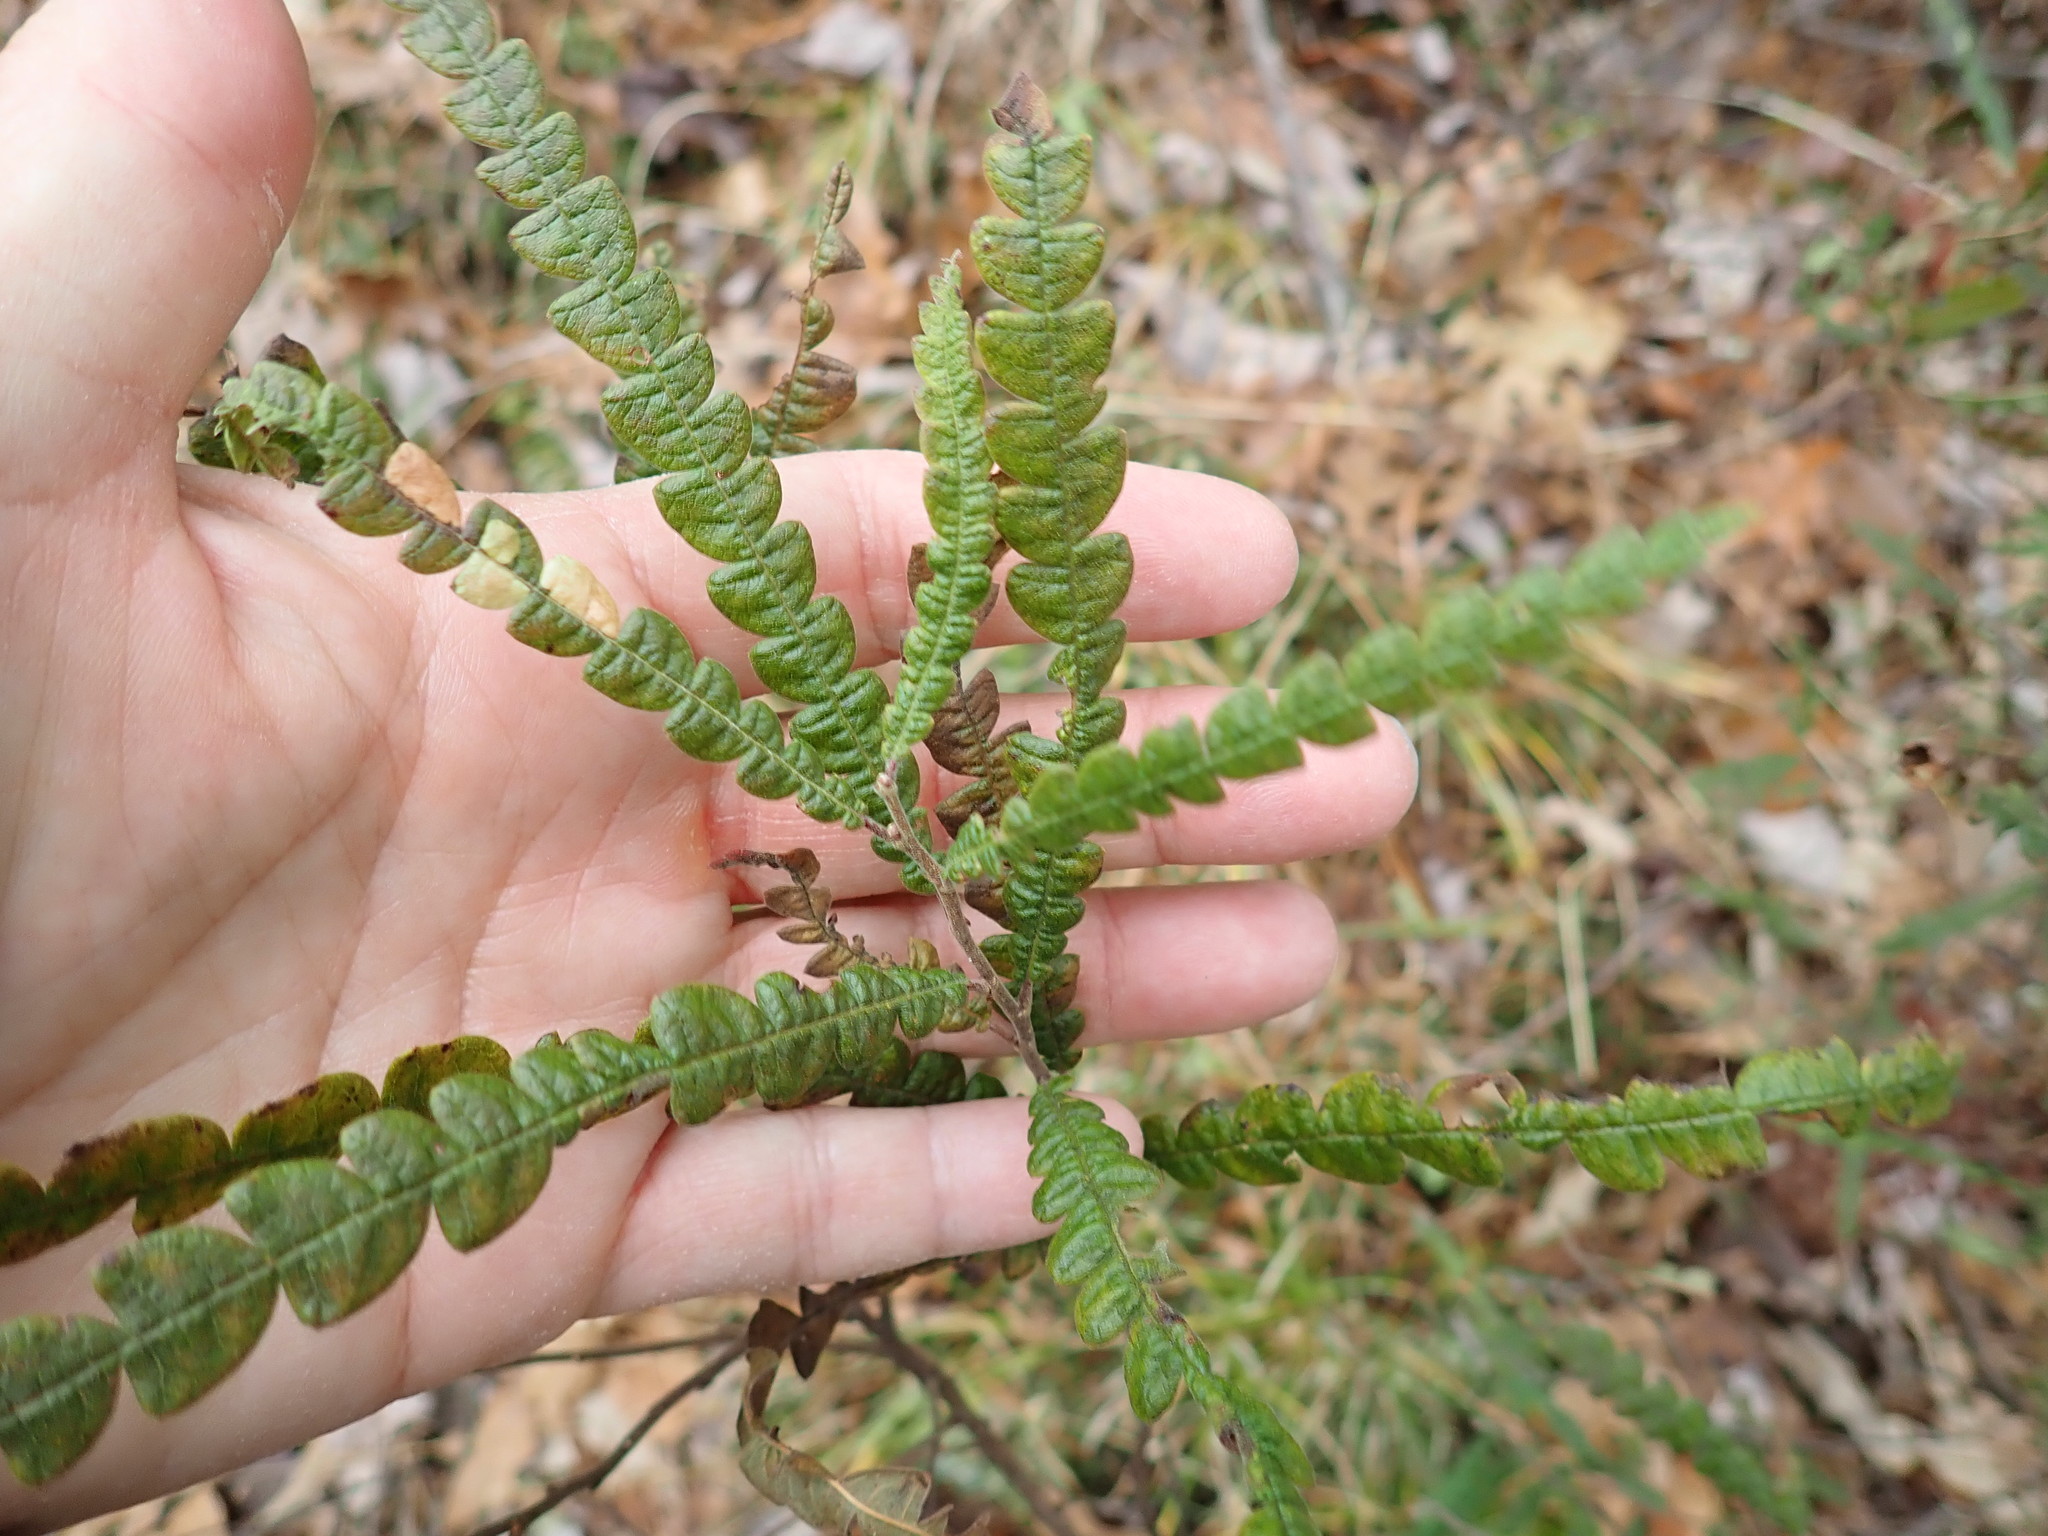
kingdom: Plantae
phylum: Tracheophyta
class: Magnoliopsida
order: Fagales
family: Myricaceae
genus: Comptonia
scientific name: Comptonia peregrina
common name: Sweet-fern
